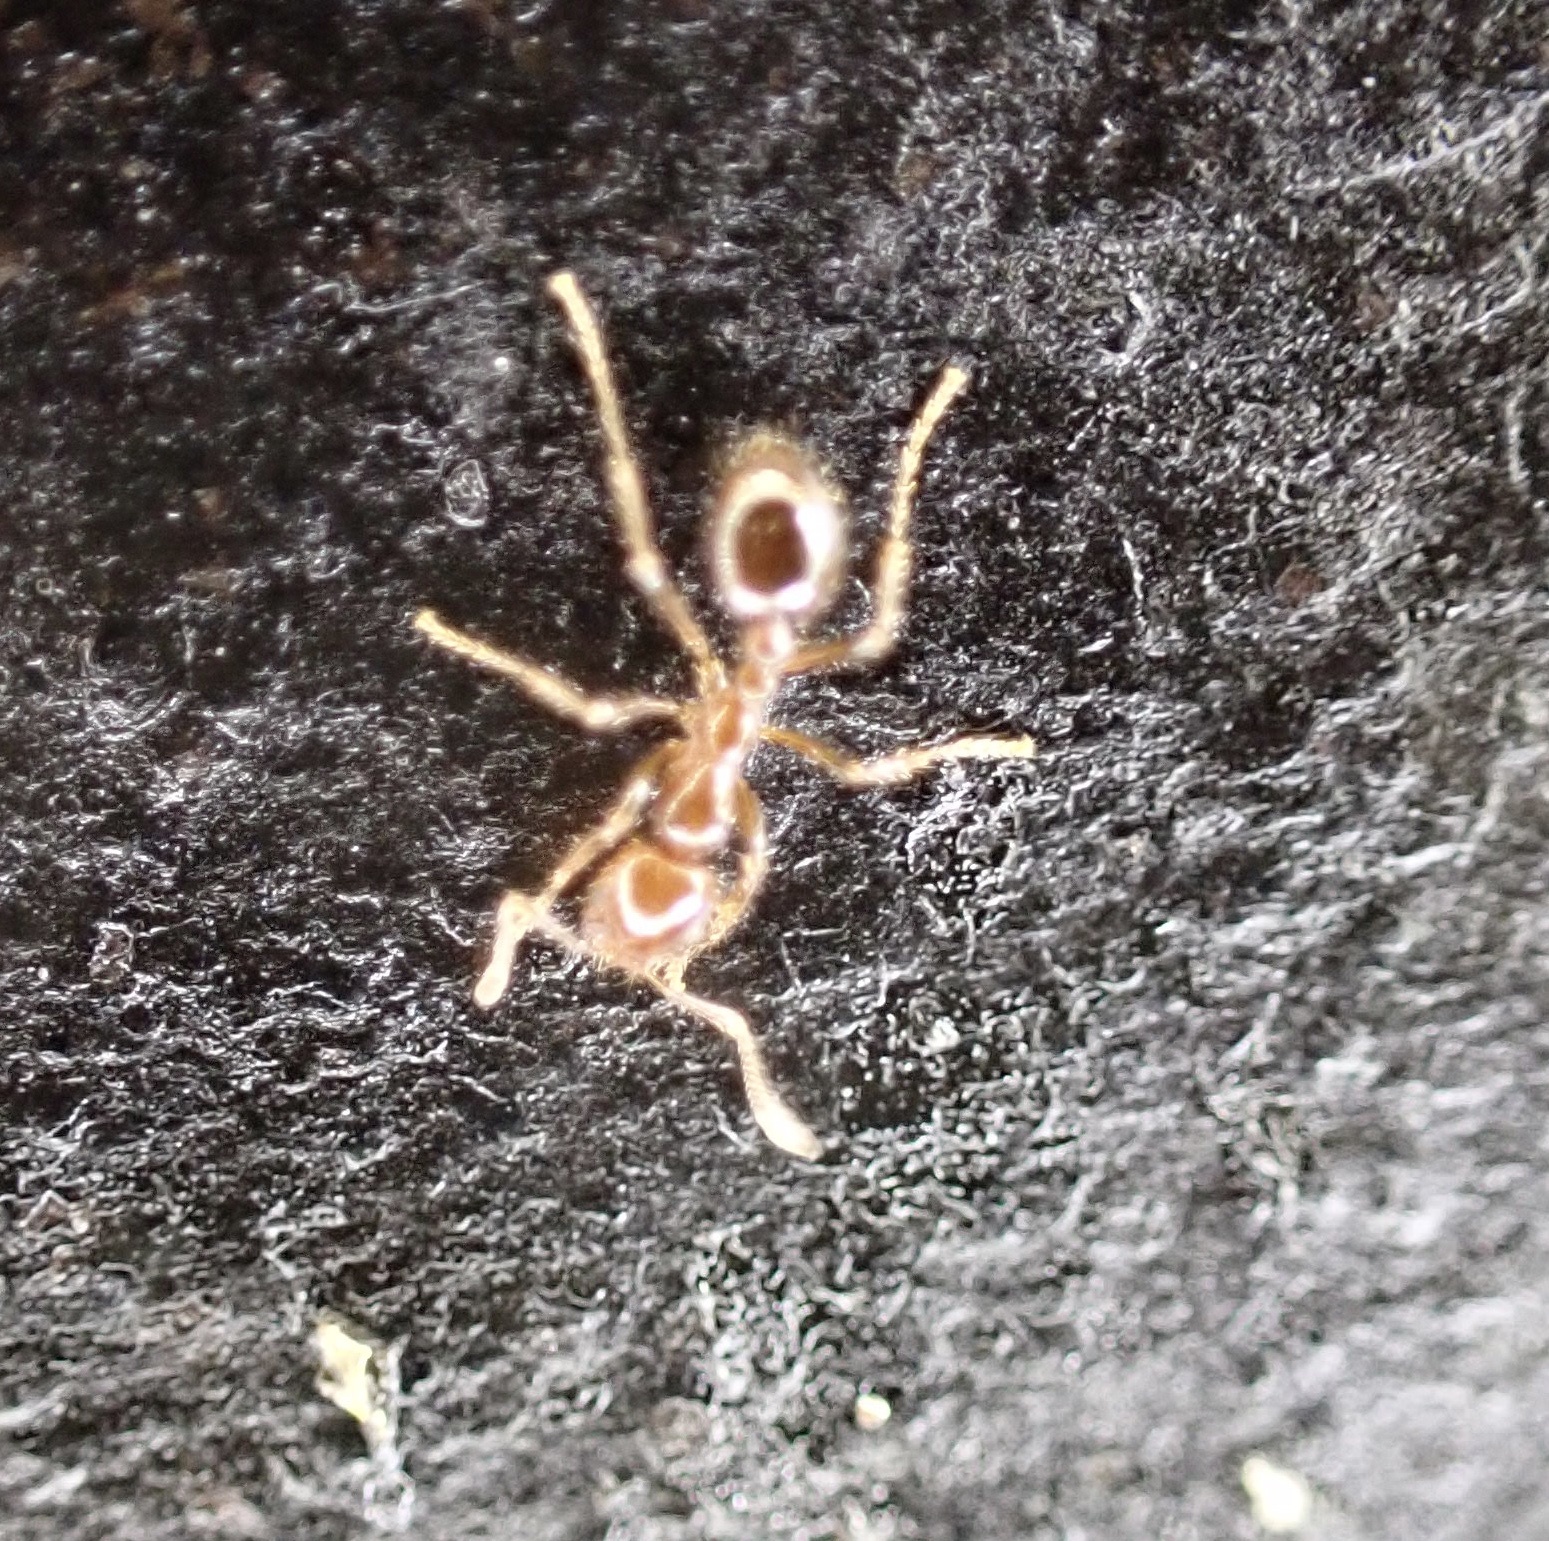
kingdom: Animalia
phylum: Arthropoda
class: Insecta
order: Hymenoptera
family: Formicidae
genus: Solenopsis
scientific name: Solenopsis invicta
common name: Red imported fire ant
